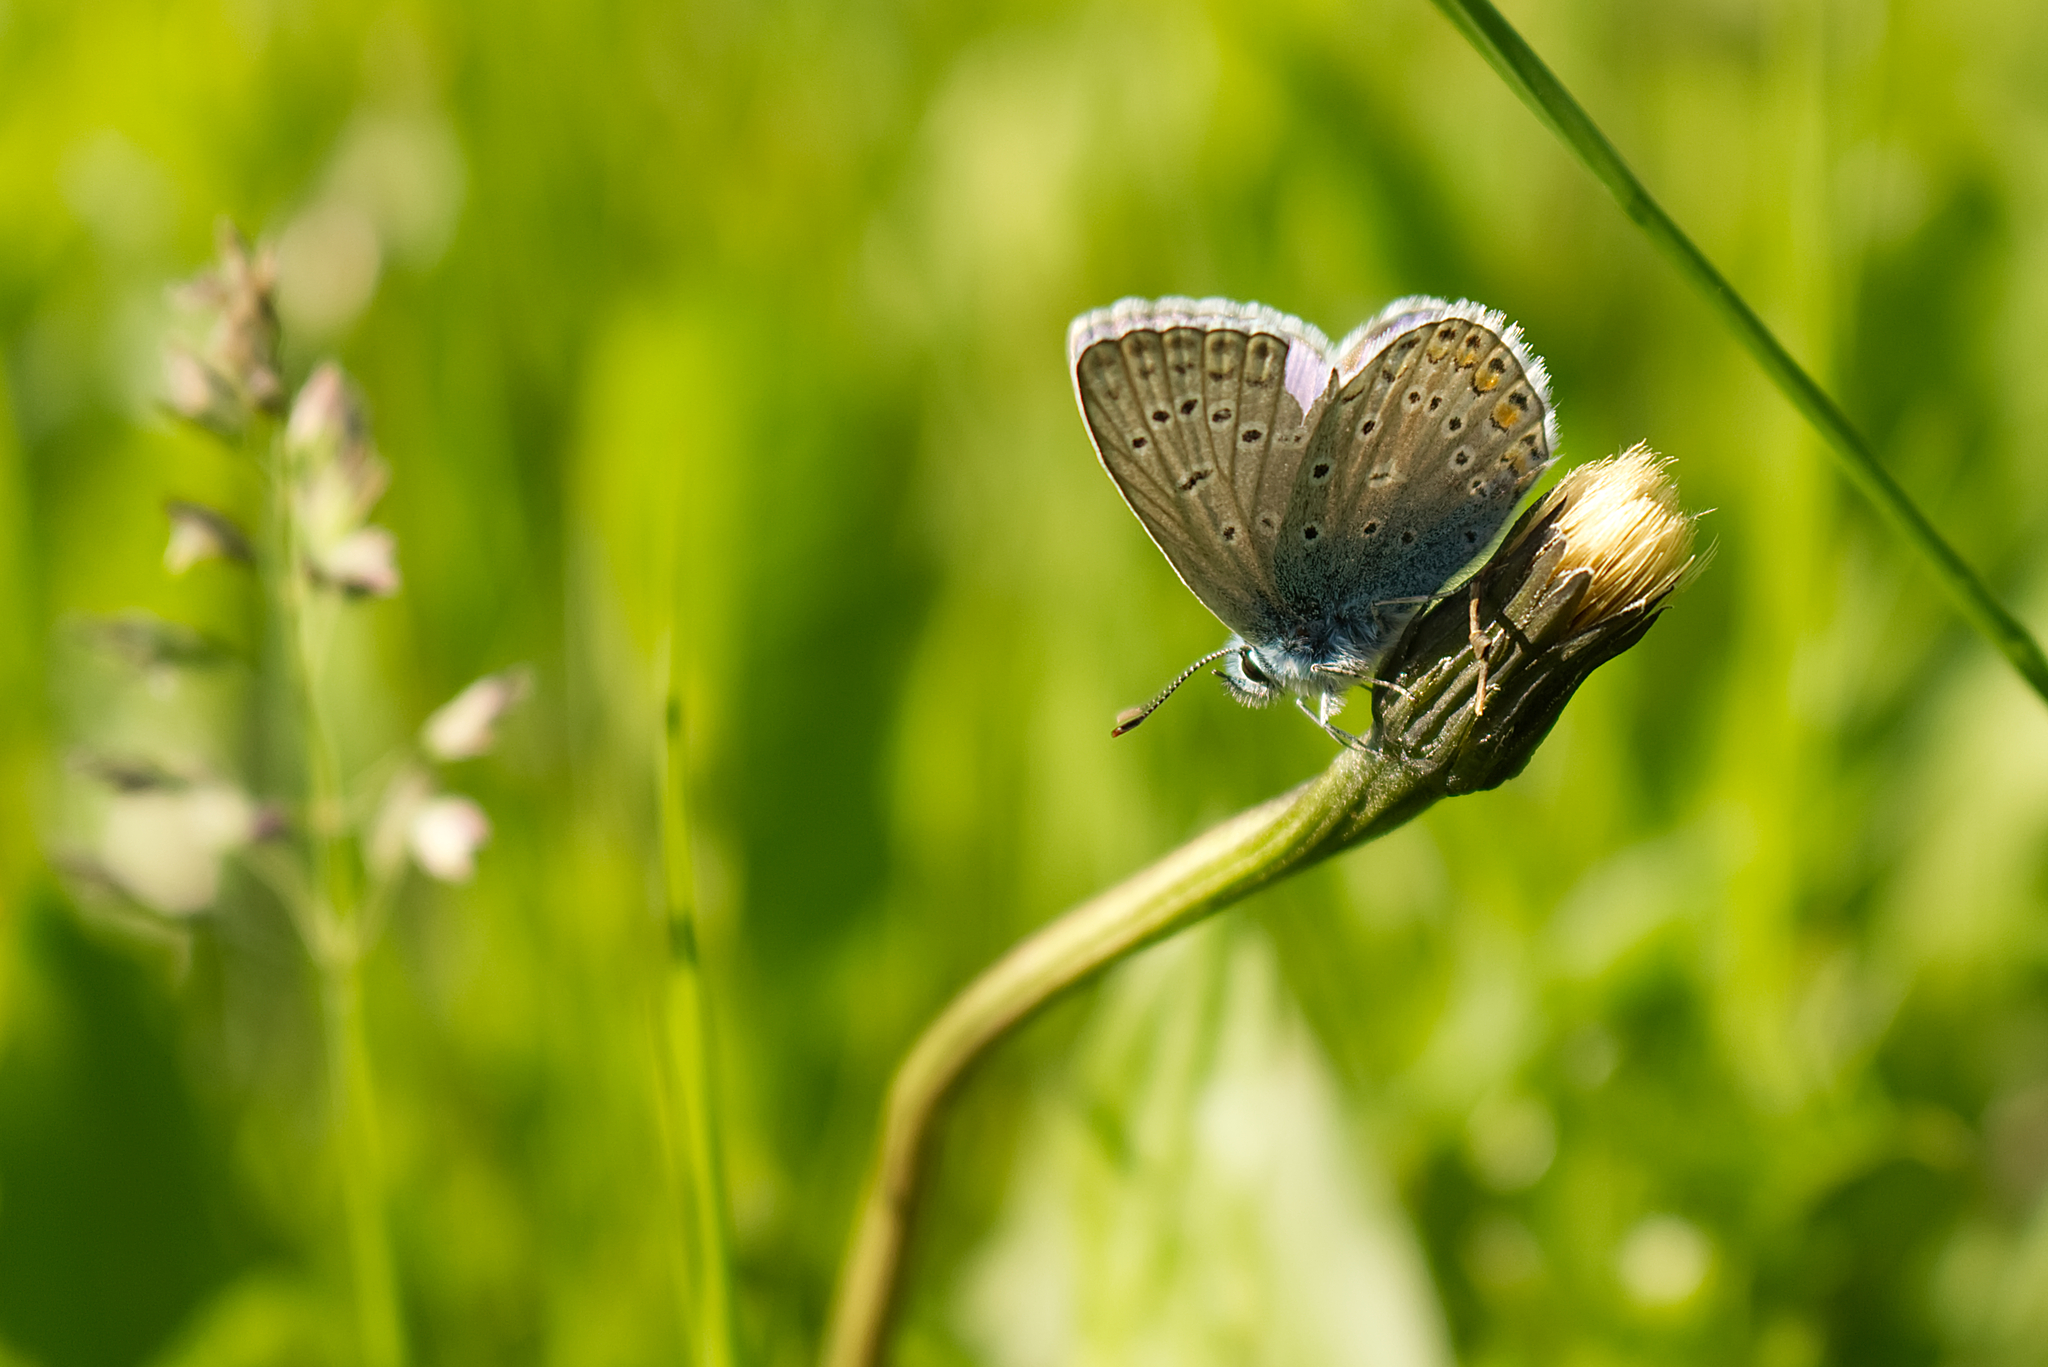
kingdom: Animalia
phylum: Arthropoda
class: Insecta
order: Lepidoptera
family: Lycaenidae
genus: Polyommatus
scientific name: Polyommatus icarus
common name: Common blue
